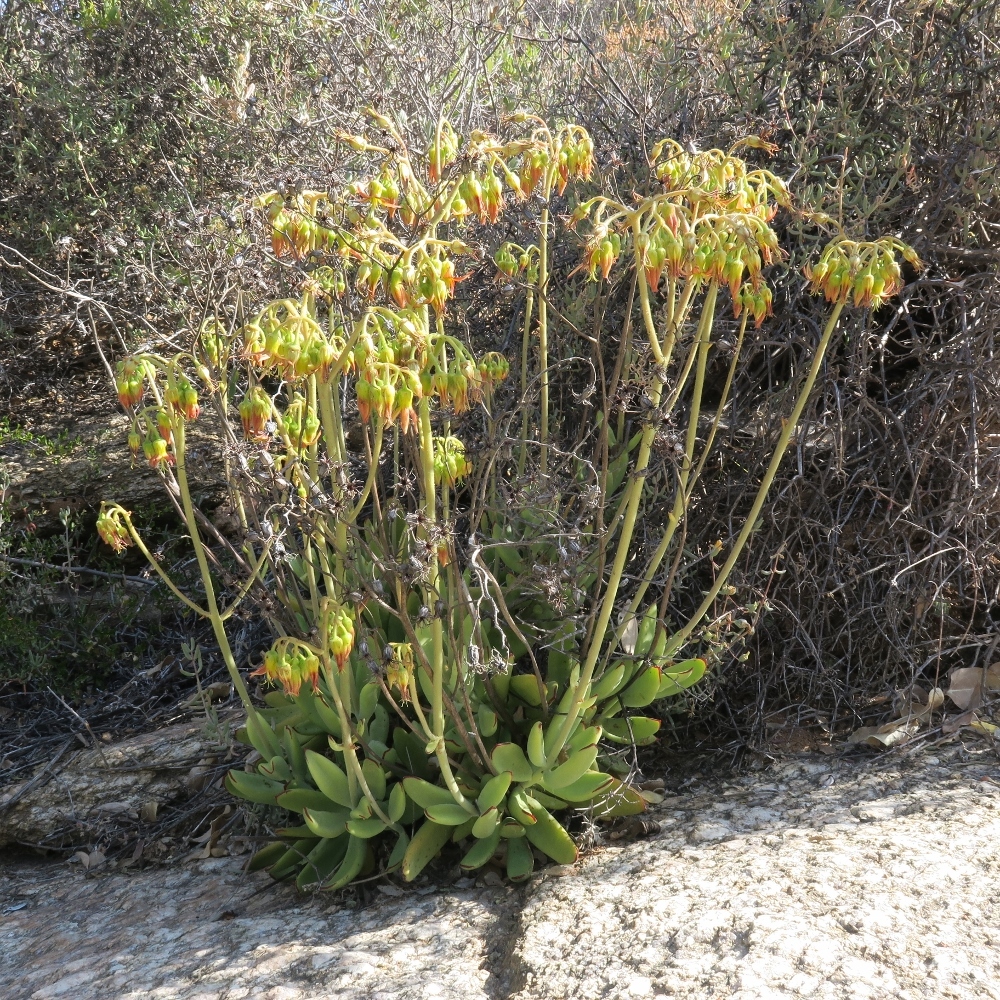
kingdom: Plantae
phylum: Tracheophyta
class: Magnoliopsida
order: Saxifragales
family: Crassulaceae
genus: Cotyledon
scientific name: Cotyledon cuneata
